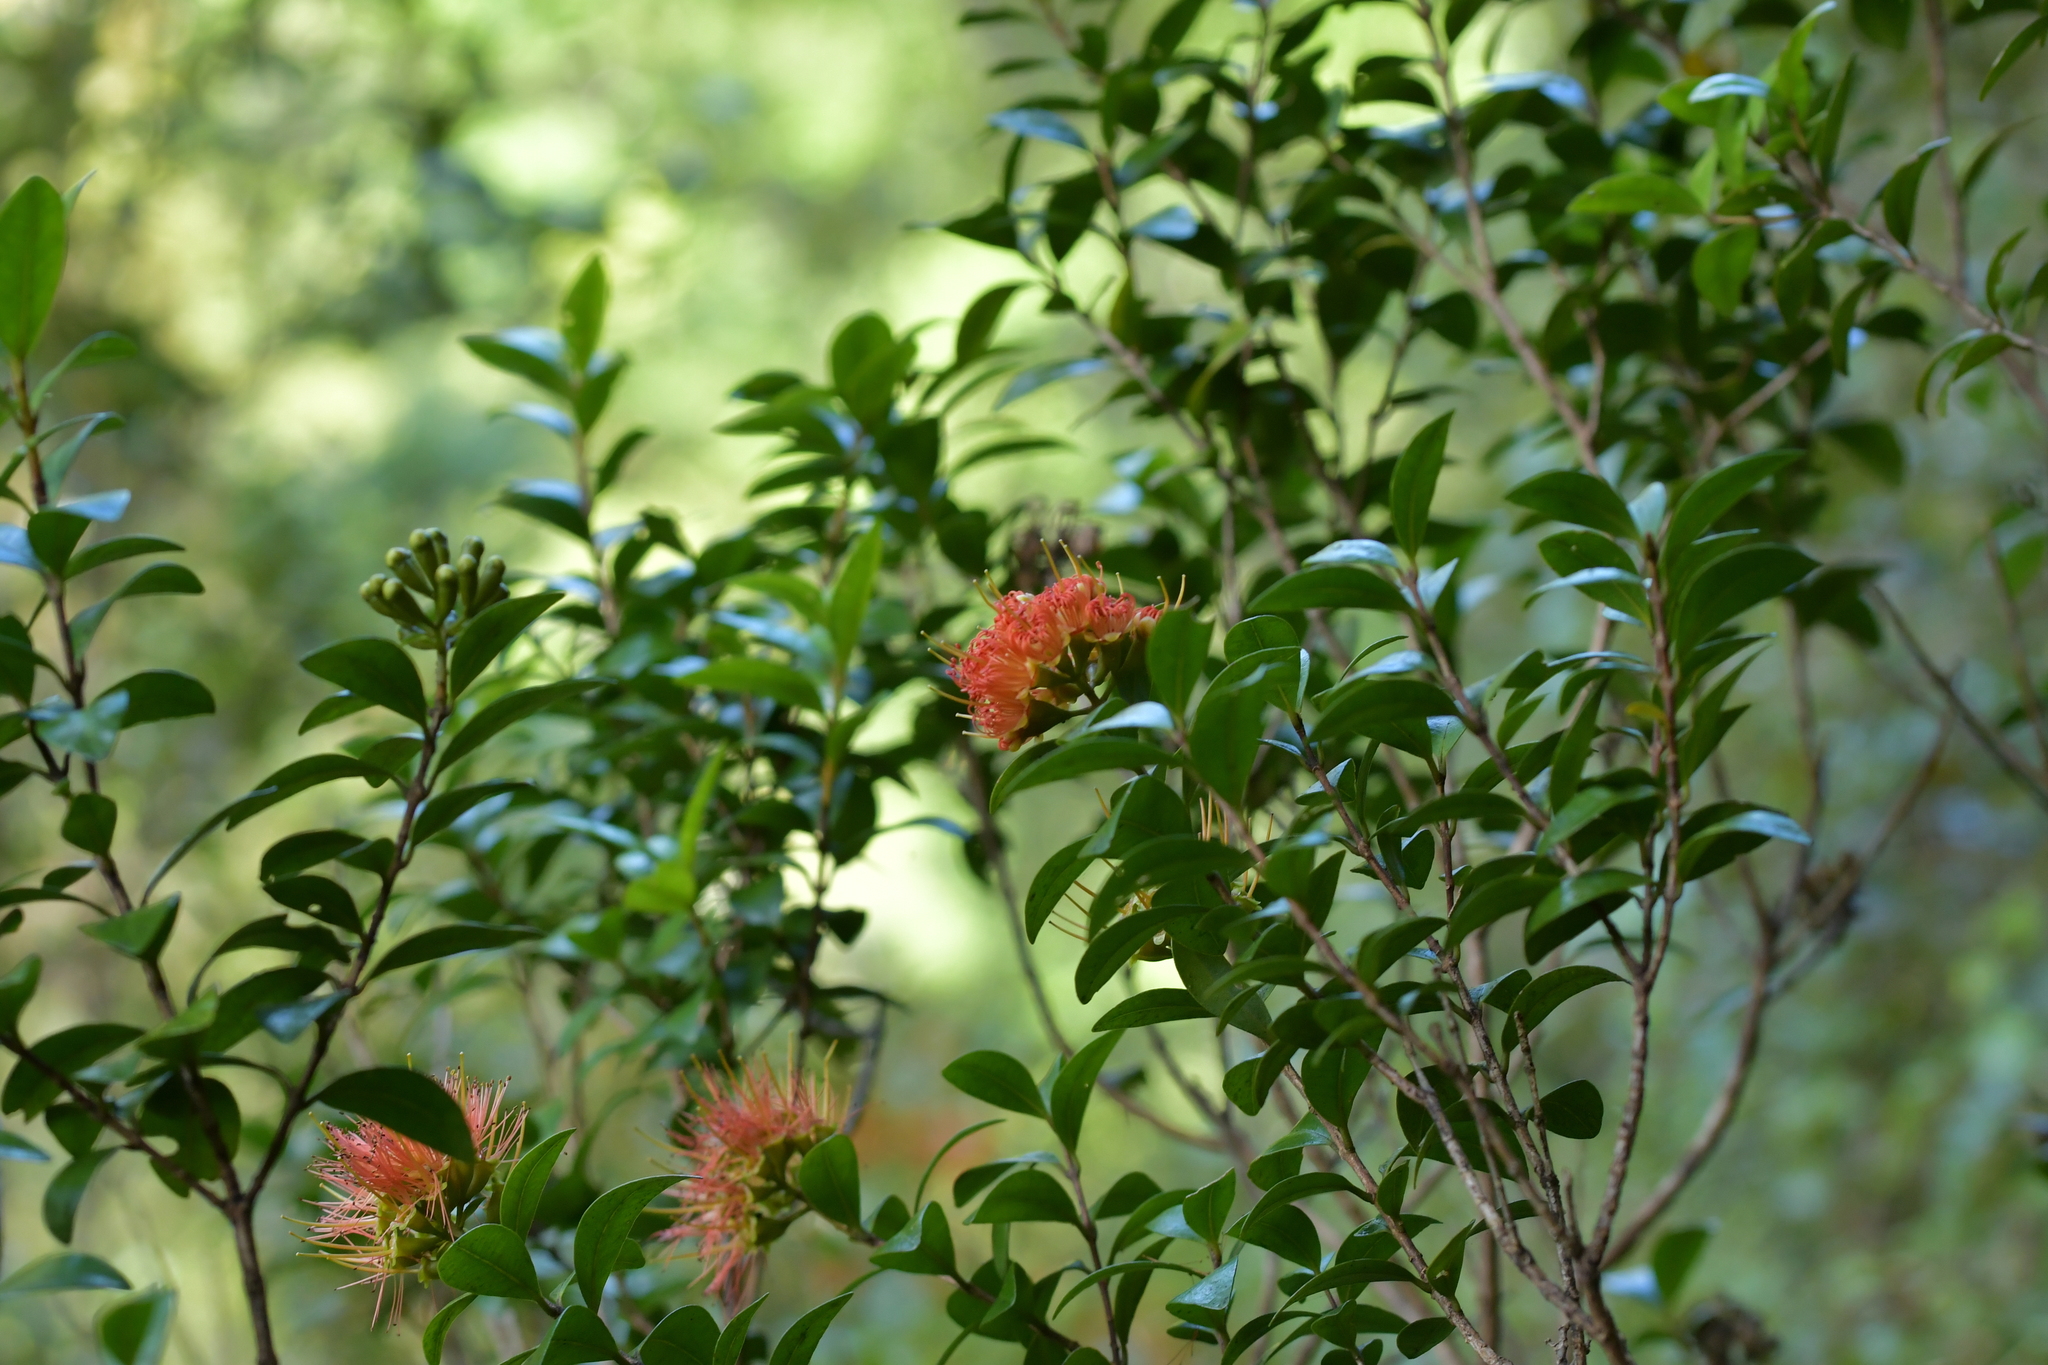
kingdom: Plantae
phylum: Tracheophyta
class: Magnoliopsida
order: Myrtales
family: Myrtaceae
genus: Metrosideros
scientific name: Metrosideros fulgens
